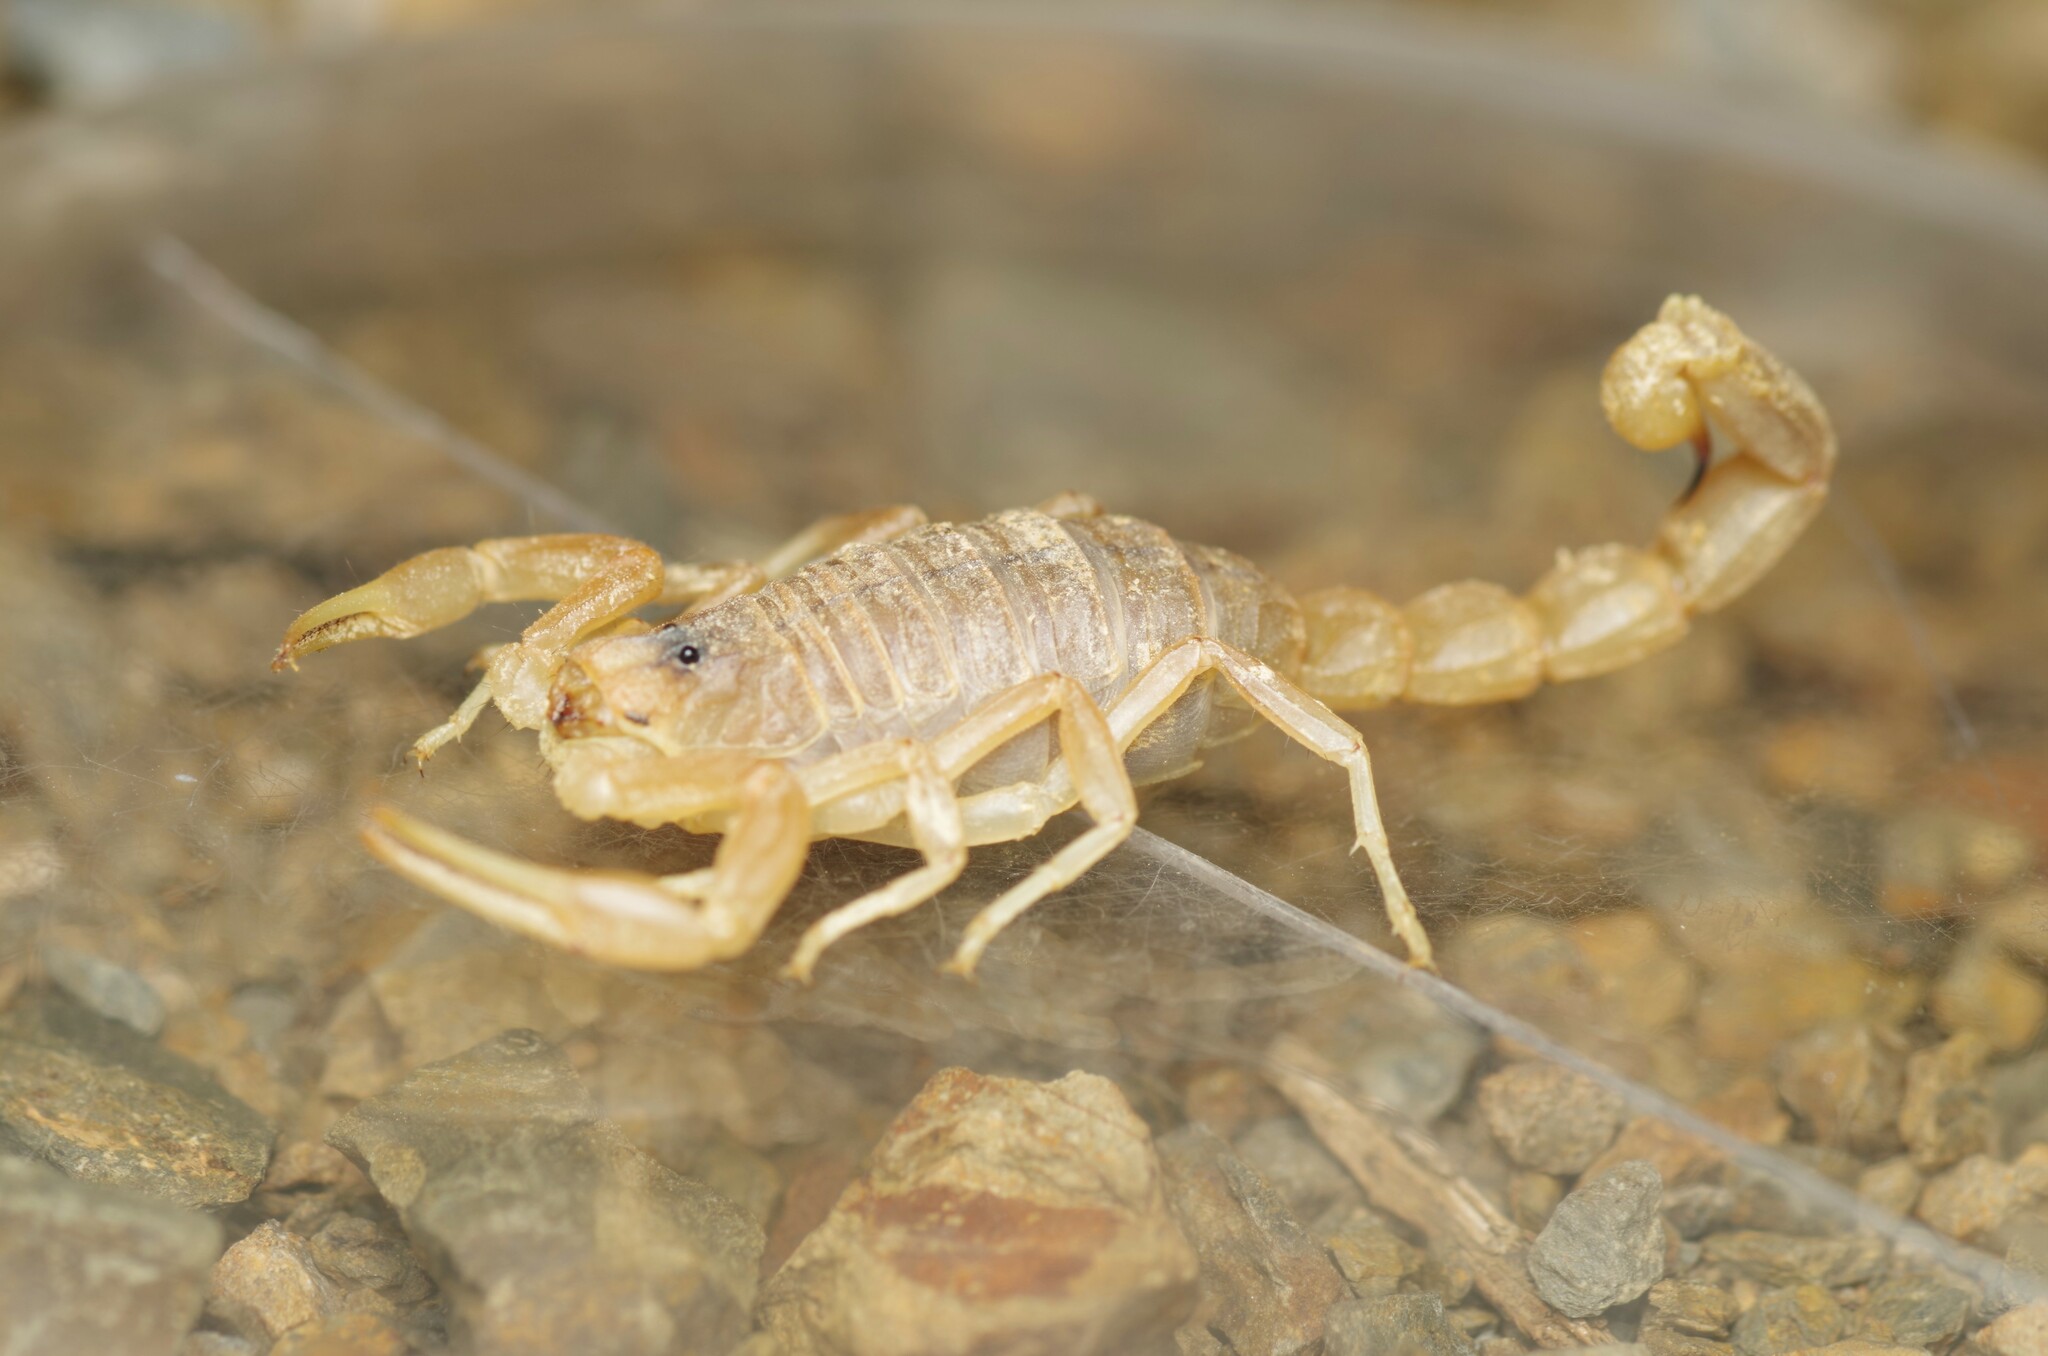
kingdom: Animalia
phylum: Arthropoda
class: Arachnida
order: Scorpiones
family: Buthidae
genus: Buthus
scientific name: Buthus pyrenaeus
